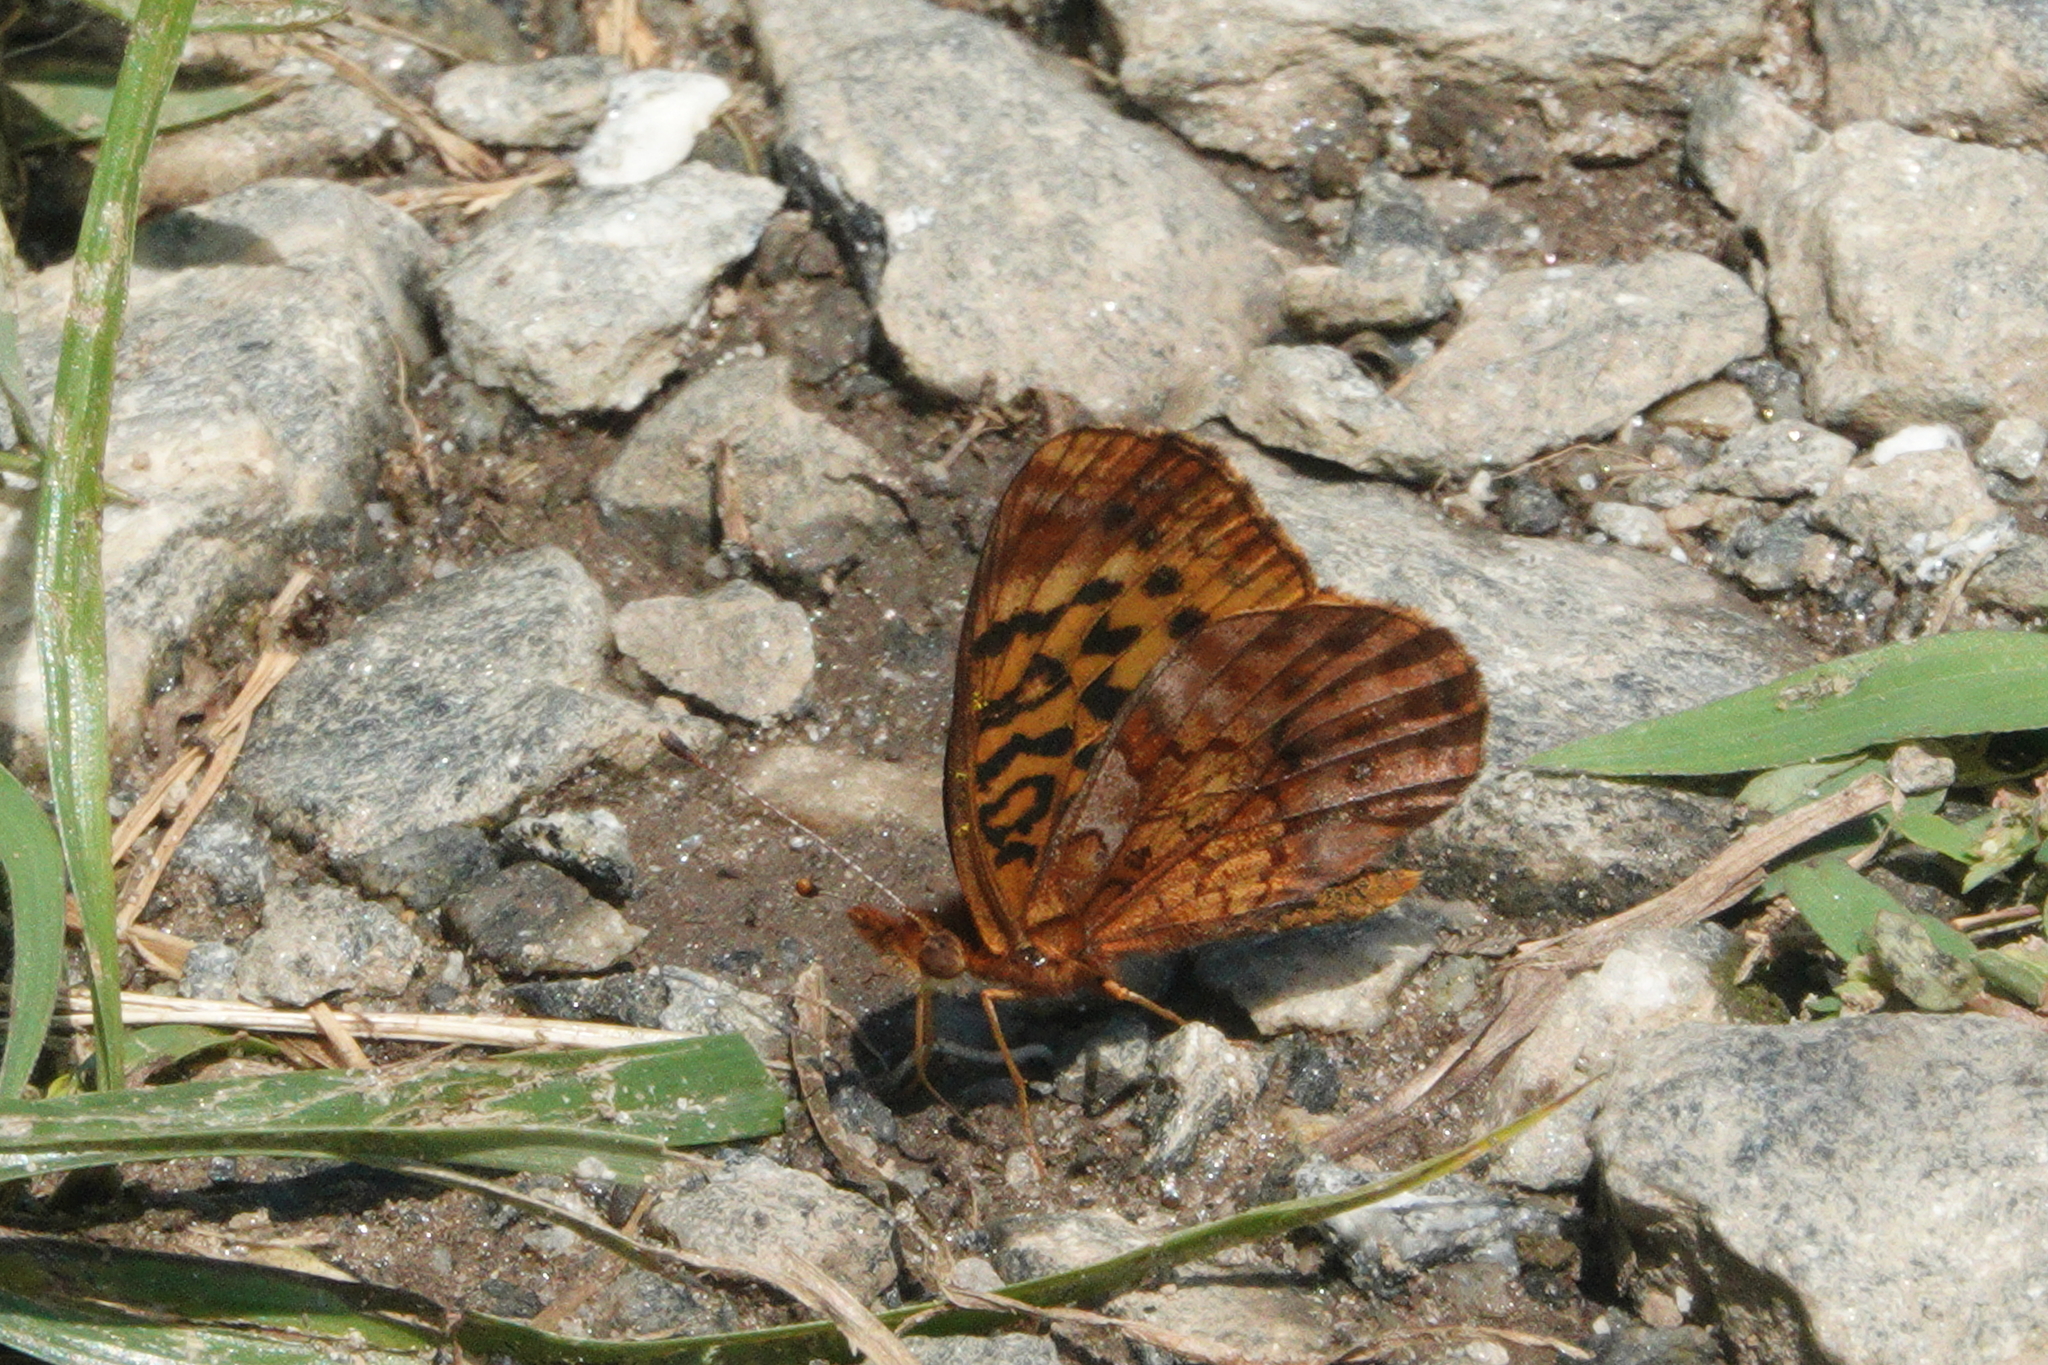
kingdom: Animalia
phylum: Arthropoda
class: Insecta
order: Lepidoptera
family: Nymphalidae
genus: Clossiana
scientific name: Clossiana toddi
